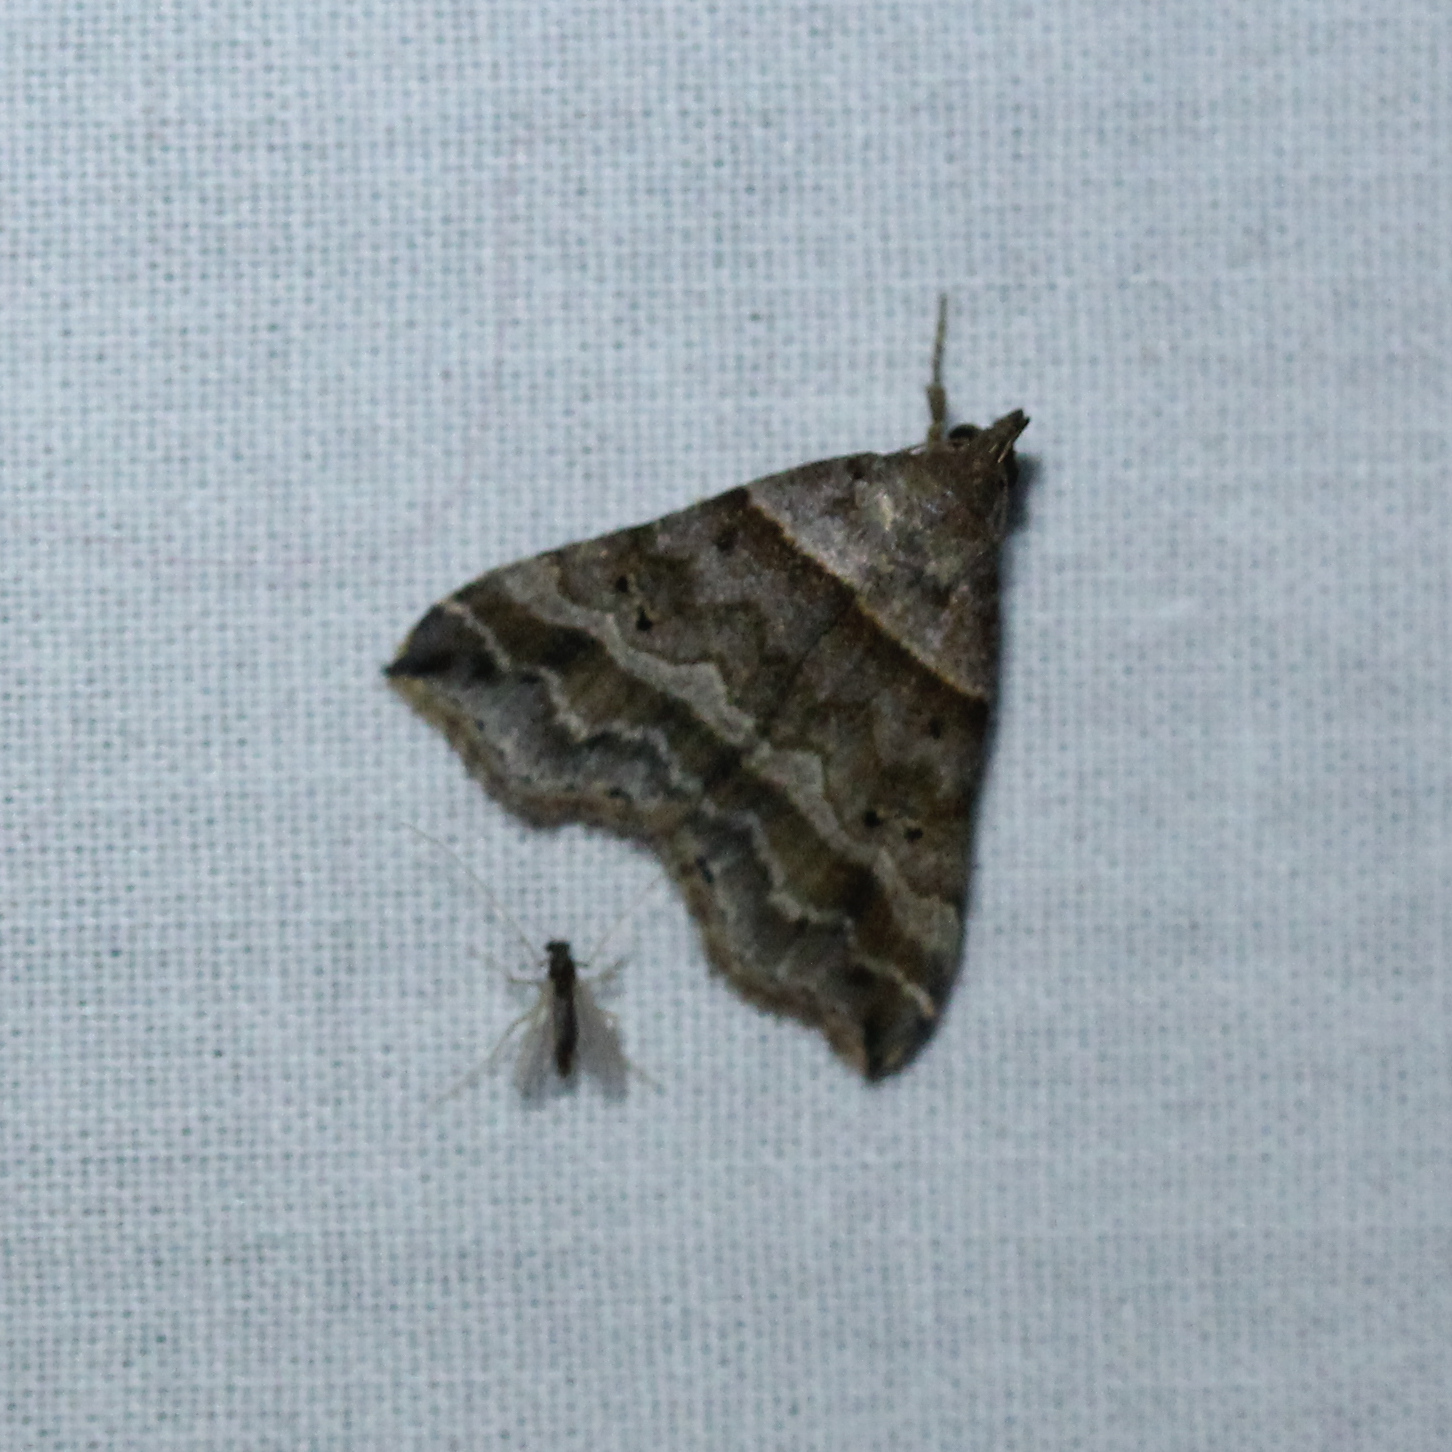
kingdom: Animalia
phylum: Arthropoda
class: Insecta
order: Lepidoptera
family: Erebidae
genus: Phaeolita
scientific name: Phaeolita pyramusalis
